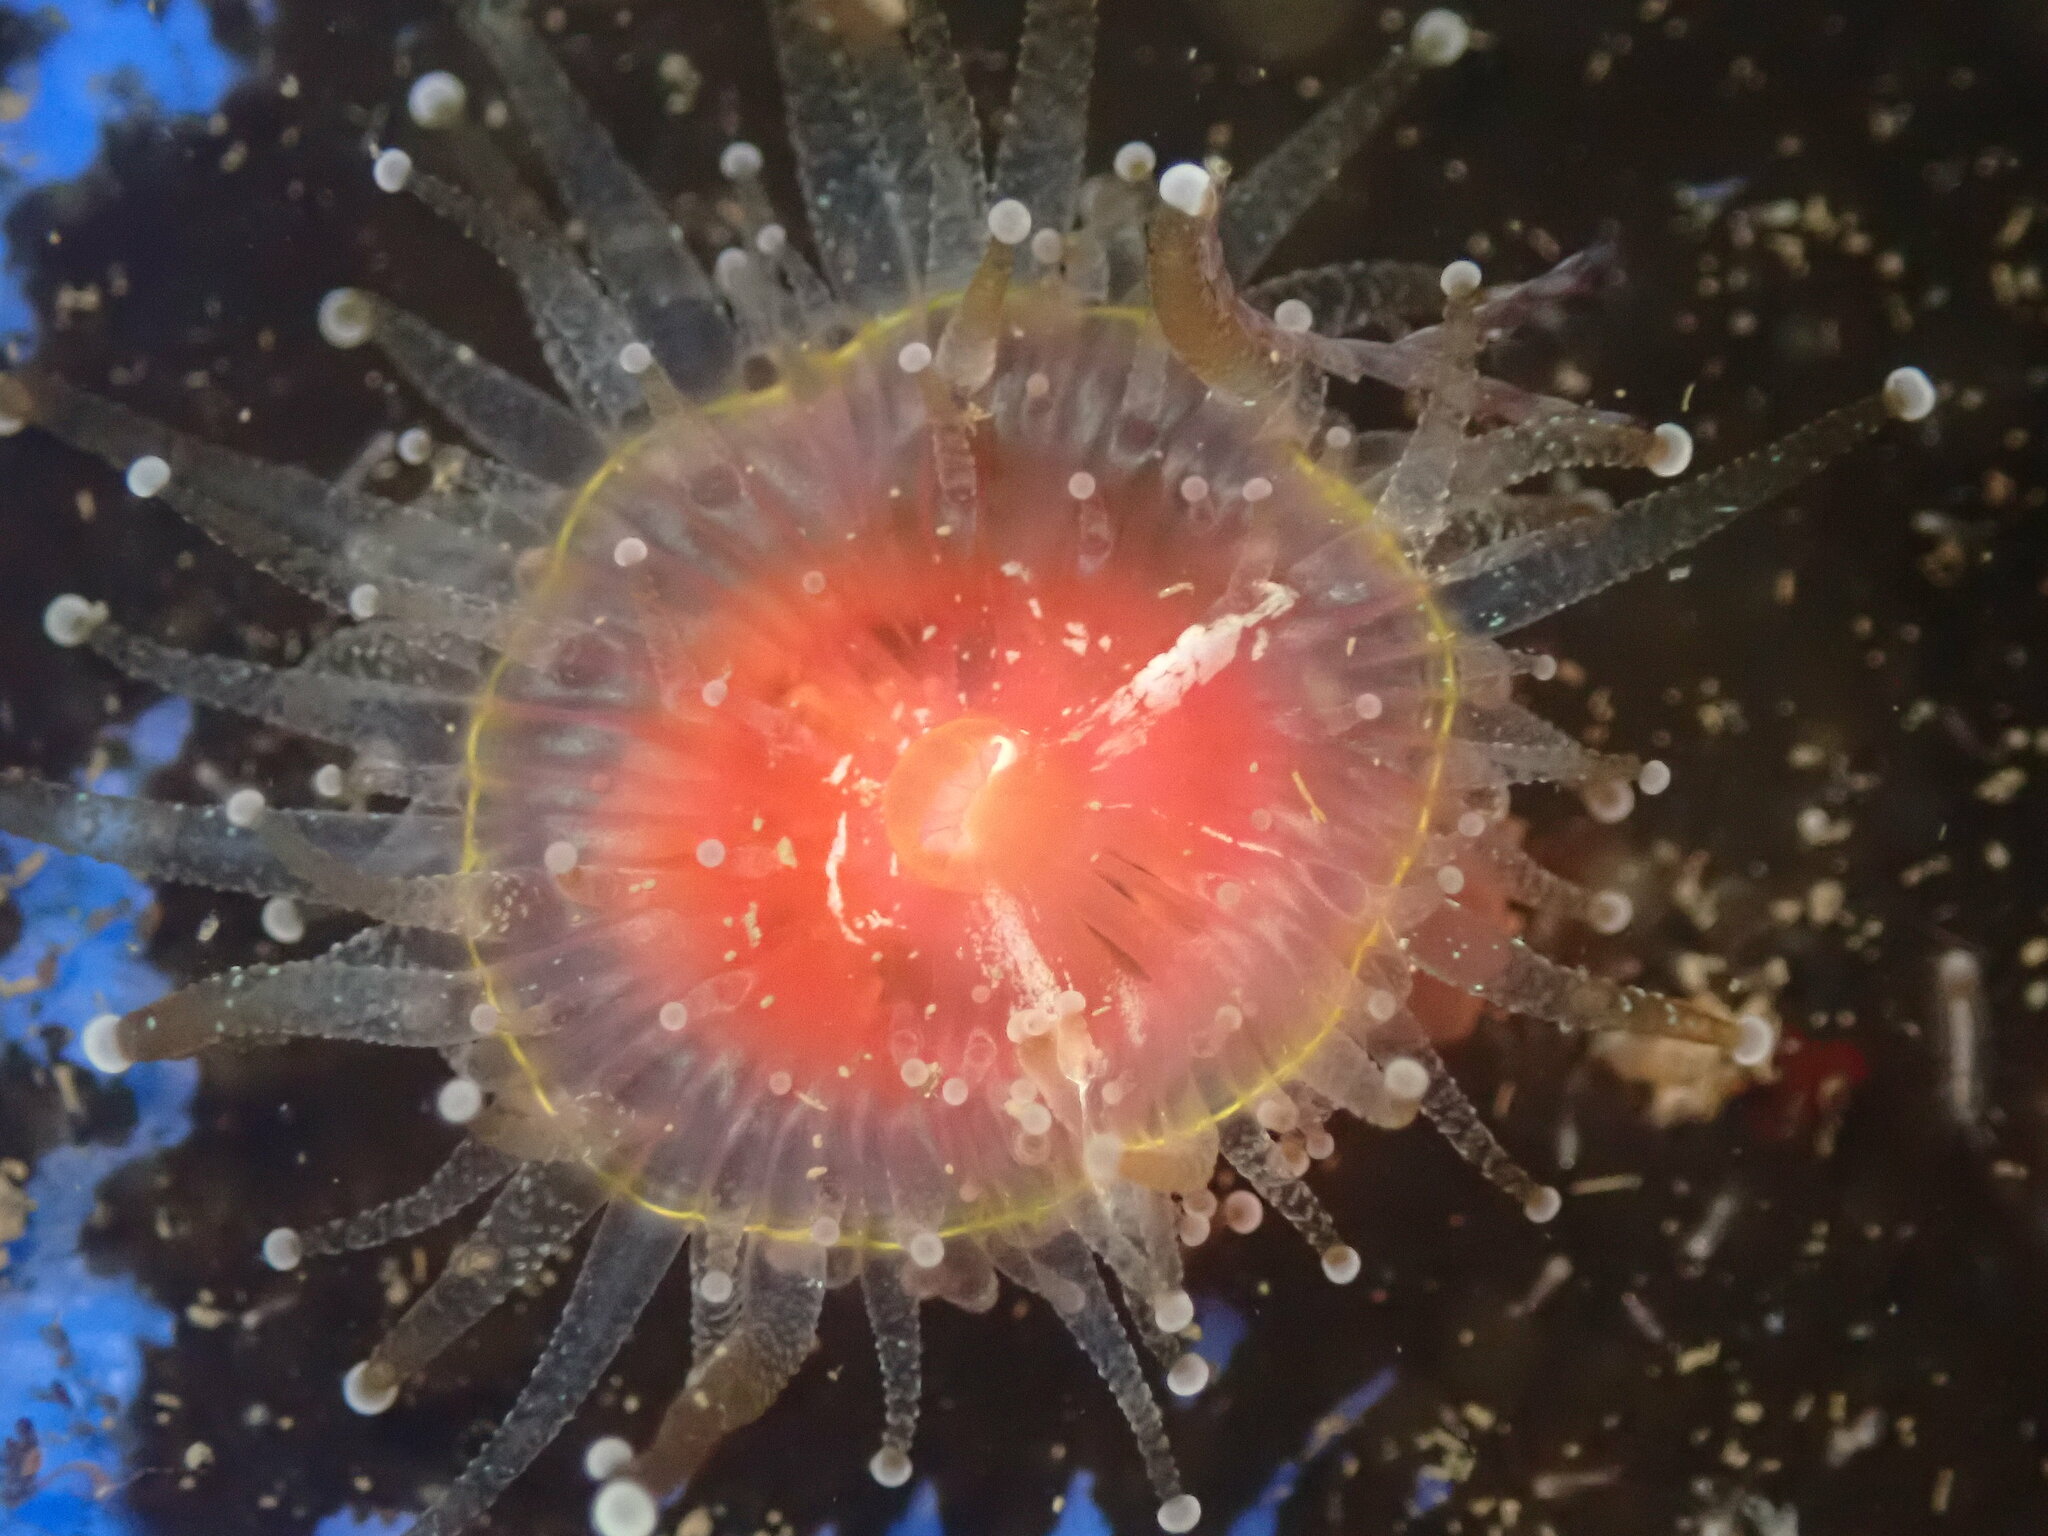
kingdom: Animalia
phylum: Cnidaria
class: Anthozoa
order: Corallimorpharia
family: Corallimorphidae
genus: Corynactis
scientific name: Corynactis californica
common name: Strawberry corallimorpharian
